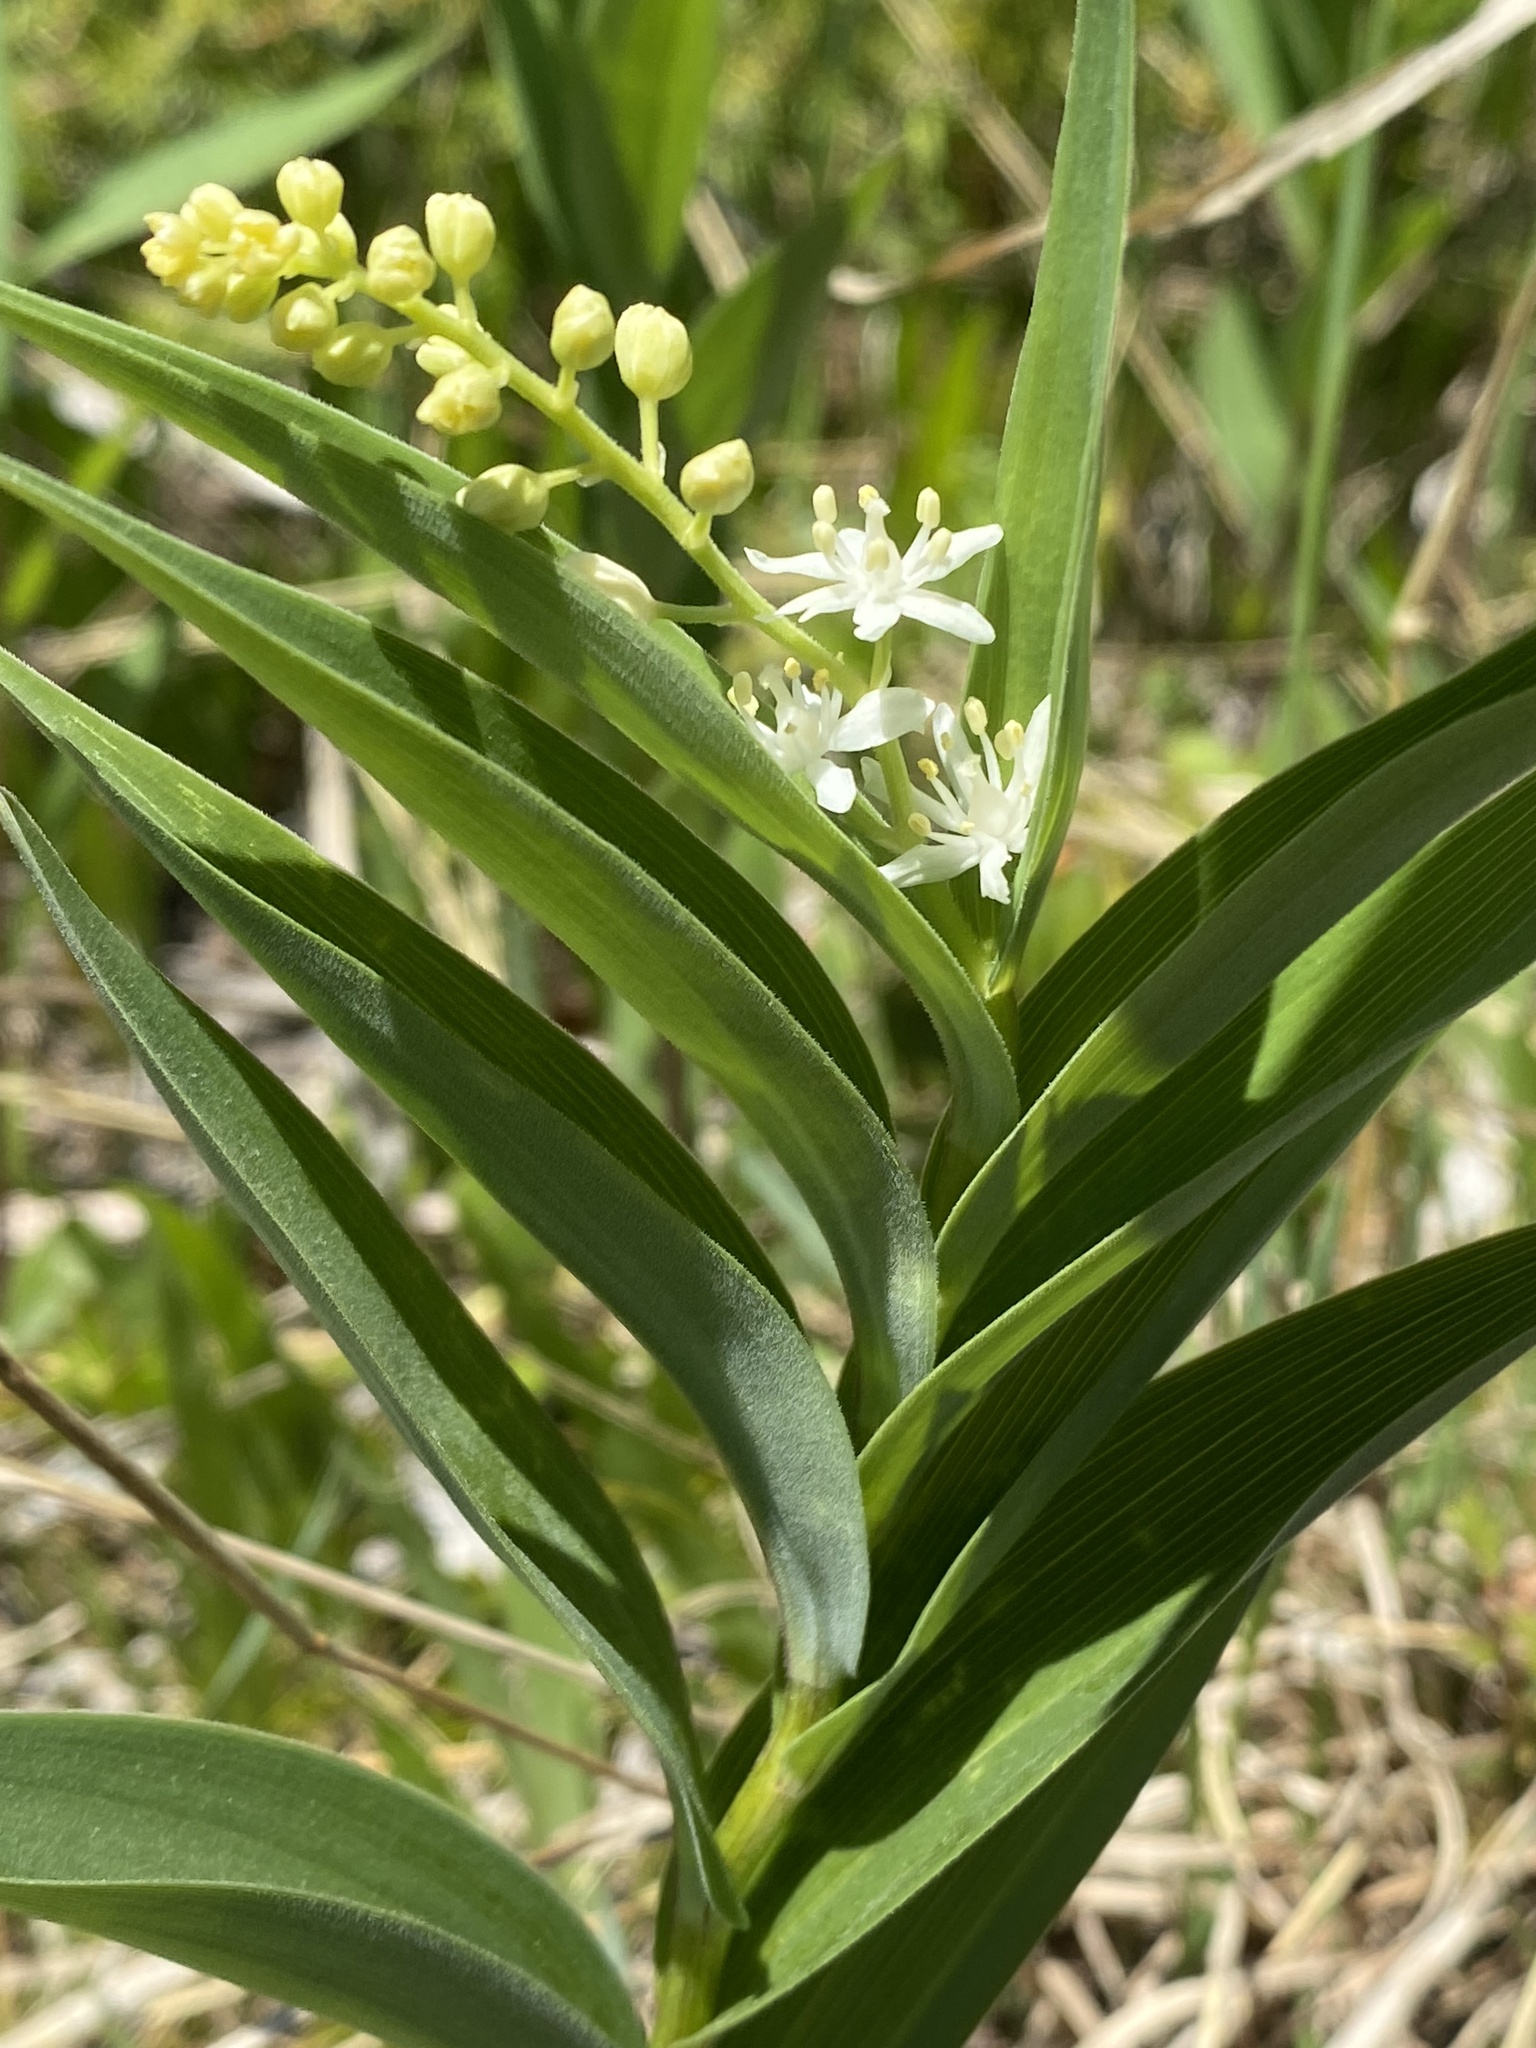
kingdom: Plantae
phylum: Tracheophyta
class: Liliopsida
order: Asparagales
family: Asparagaceae
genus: Maianthemum
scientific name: Maianthemum stellatum
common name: Little false solomon's seal
